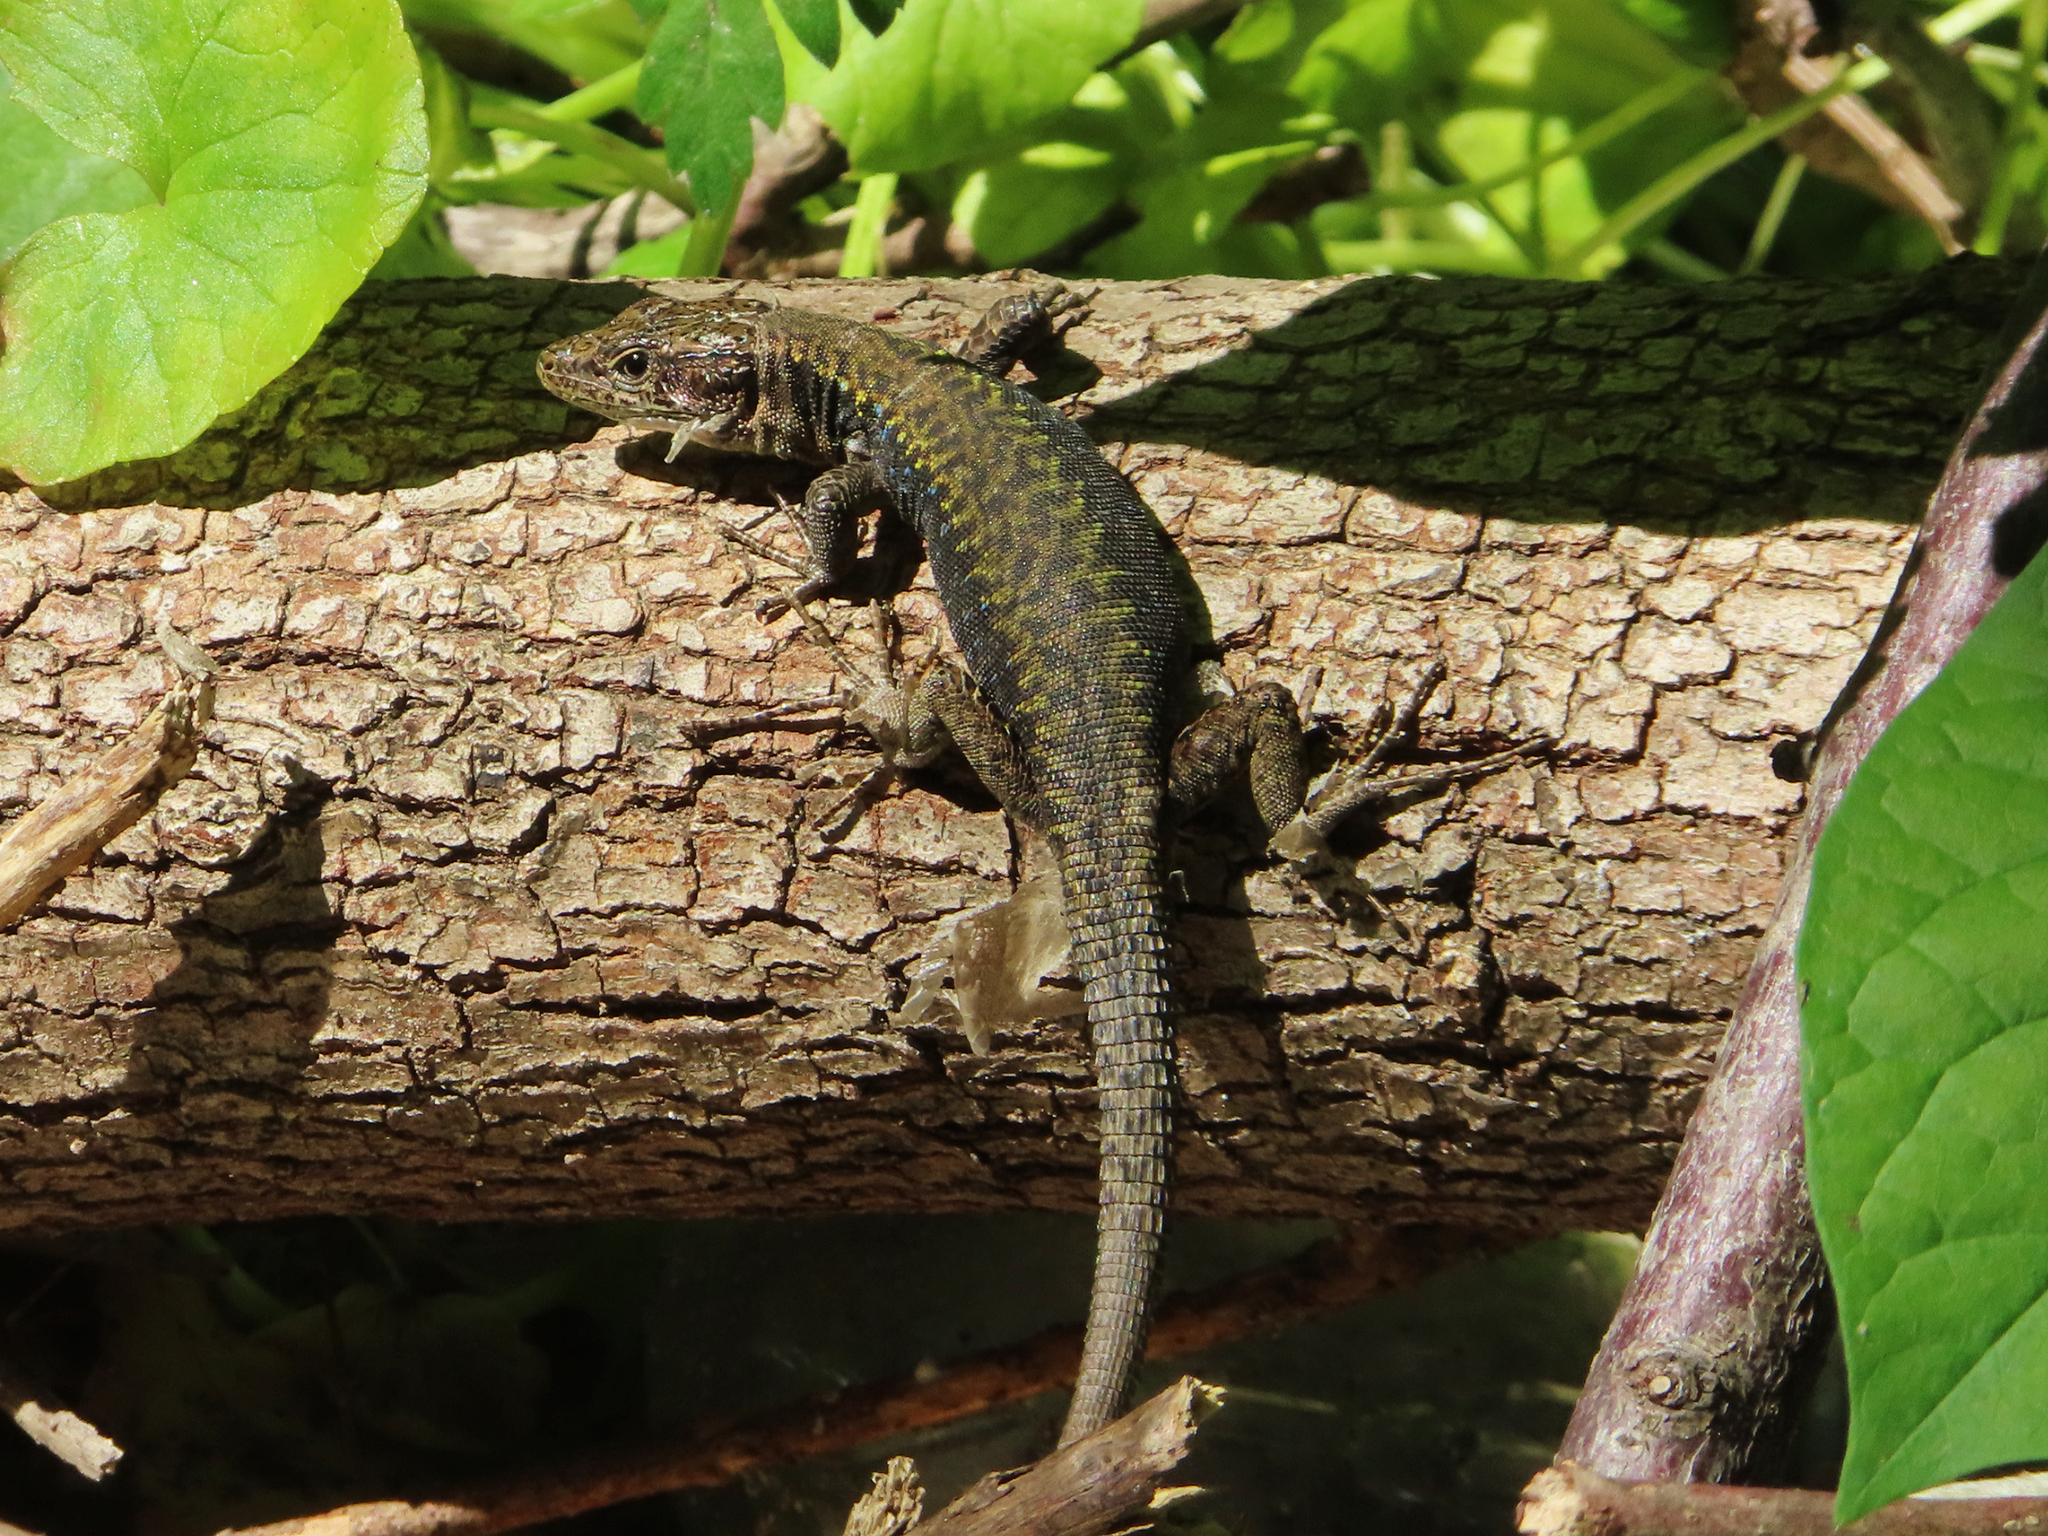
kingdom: Animalia
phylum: Chordata
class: Squamata
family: Lacertidae
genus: Darevskia
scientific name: Darevskia mixta
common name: Ajarian lizard
